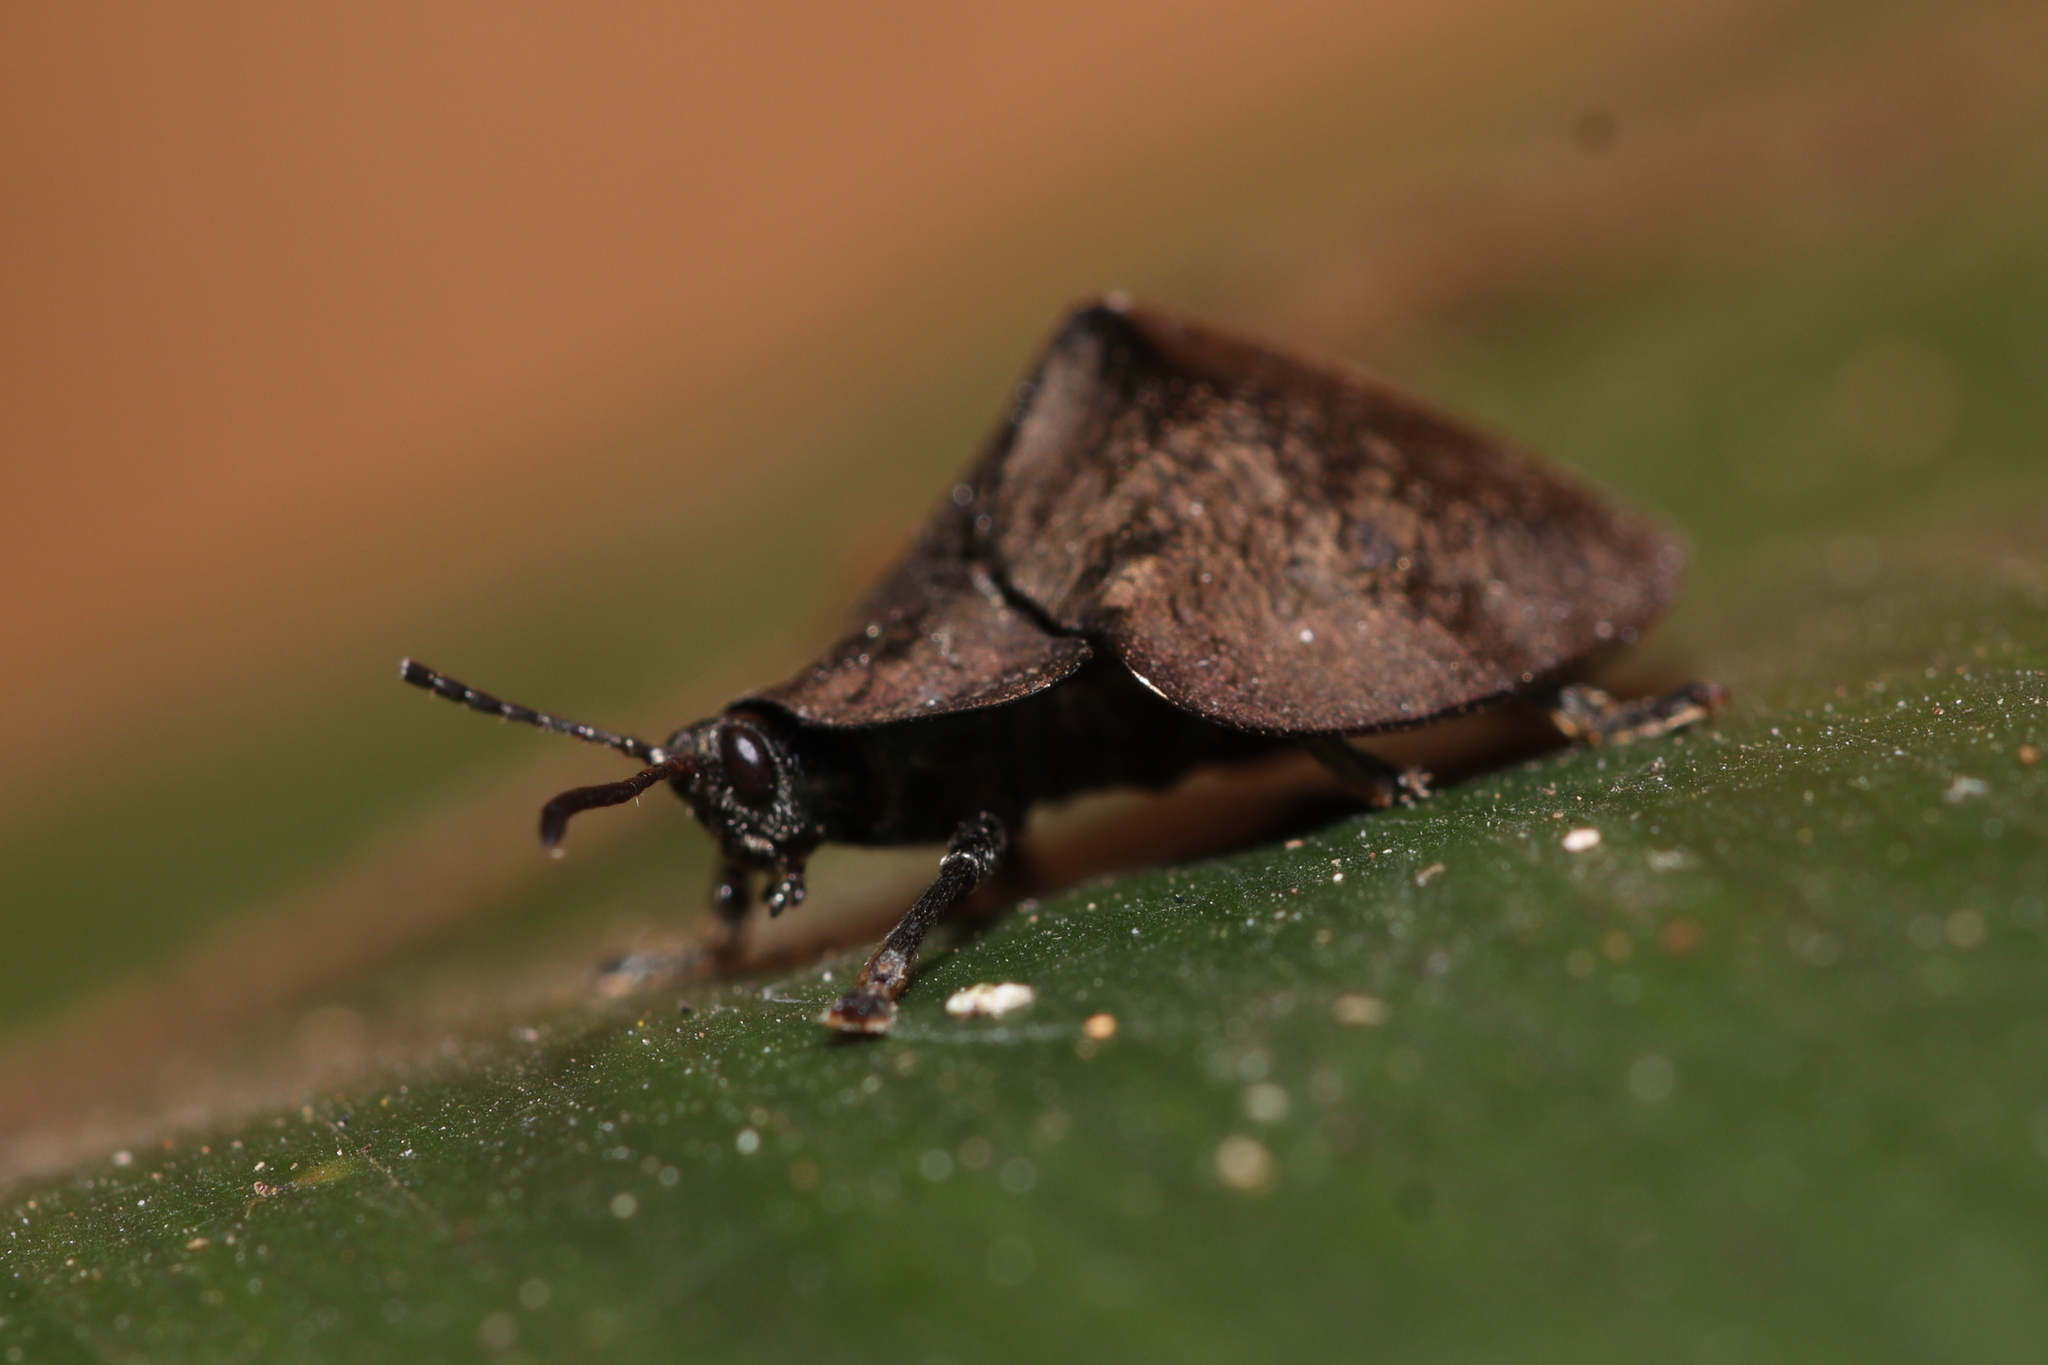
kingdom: Animalia
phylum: Arthropoda
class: Insecta
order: Coleoptera
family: Chrysomelidae
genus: Stolas
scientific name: Stolas antiqua
